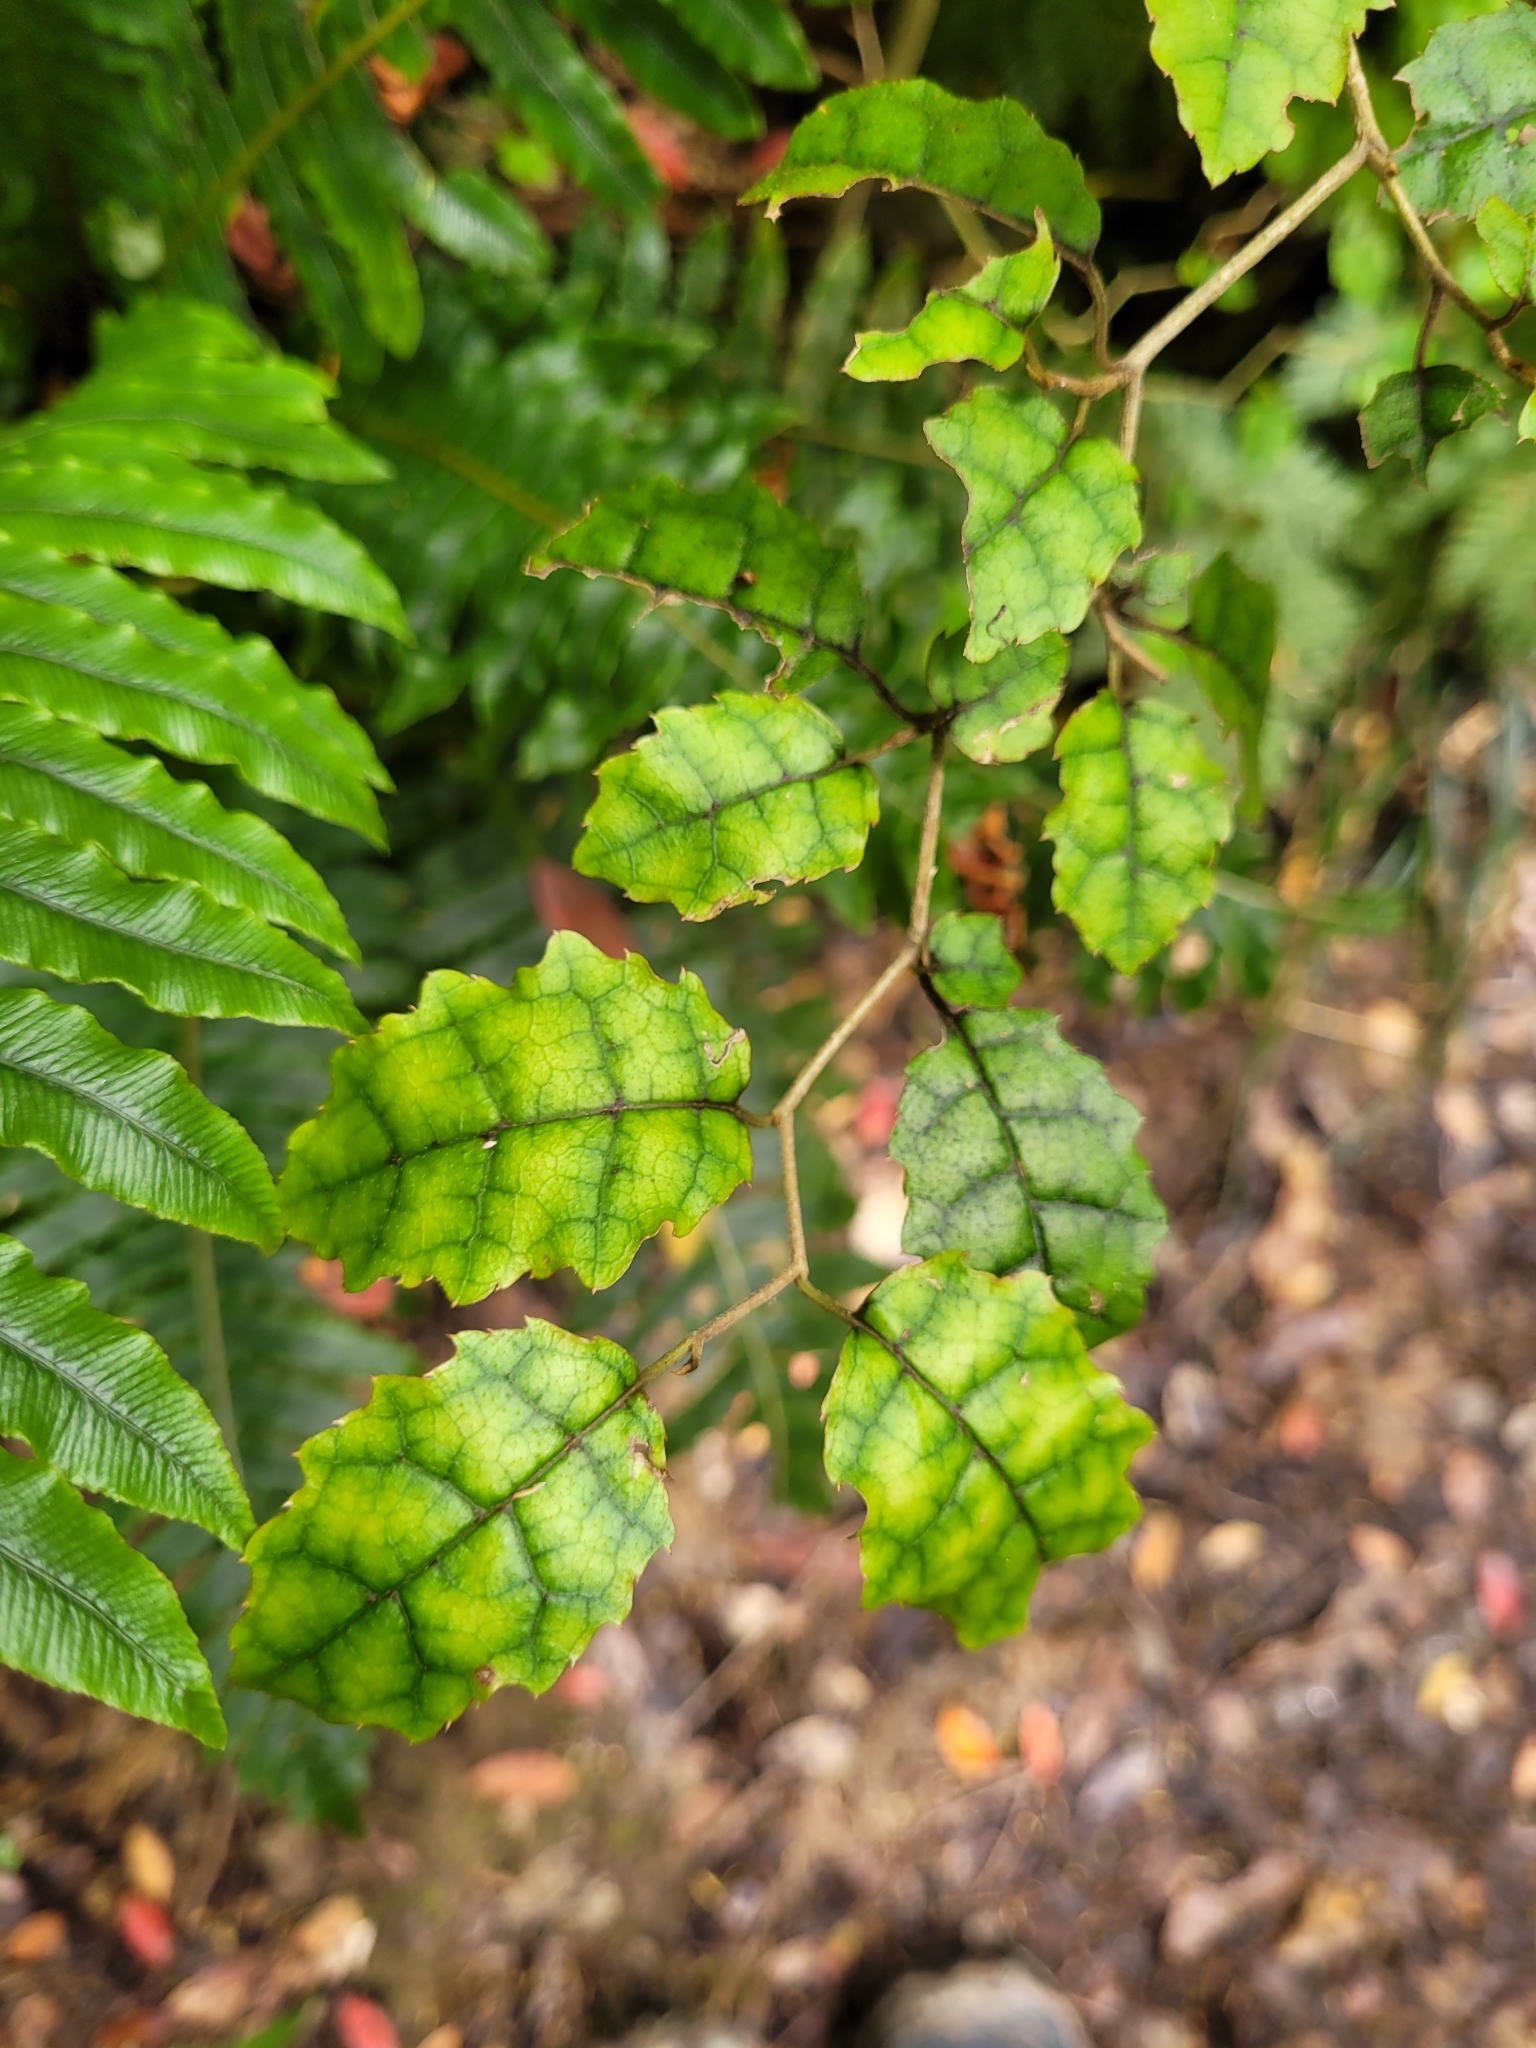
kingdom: Plantae
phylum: Tracheophyta
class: Magnoliopsida
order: Asterales
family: Rousseaceae
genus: Carpodetus
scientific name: Carpodetus serratus
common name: White mapau
